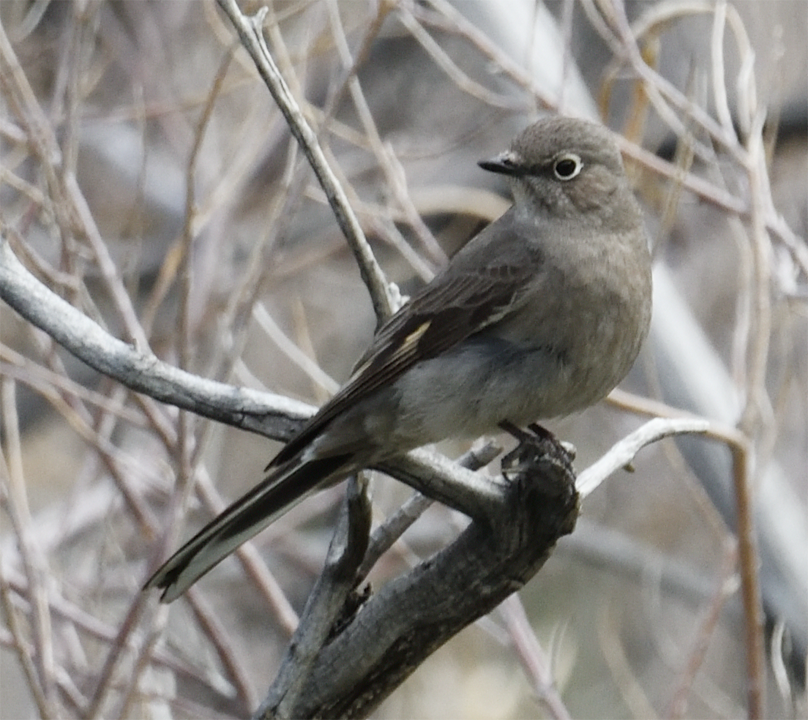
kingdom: Animalia
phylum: Chordata
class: Aves
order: Passeriformes
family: Turdidae
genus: Myadestes
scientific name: Myadestes townsendi
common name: Townsend's solitaire
